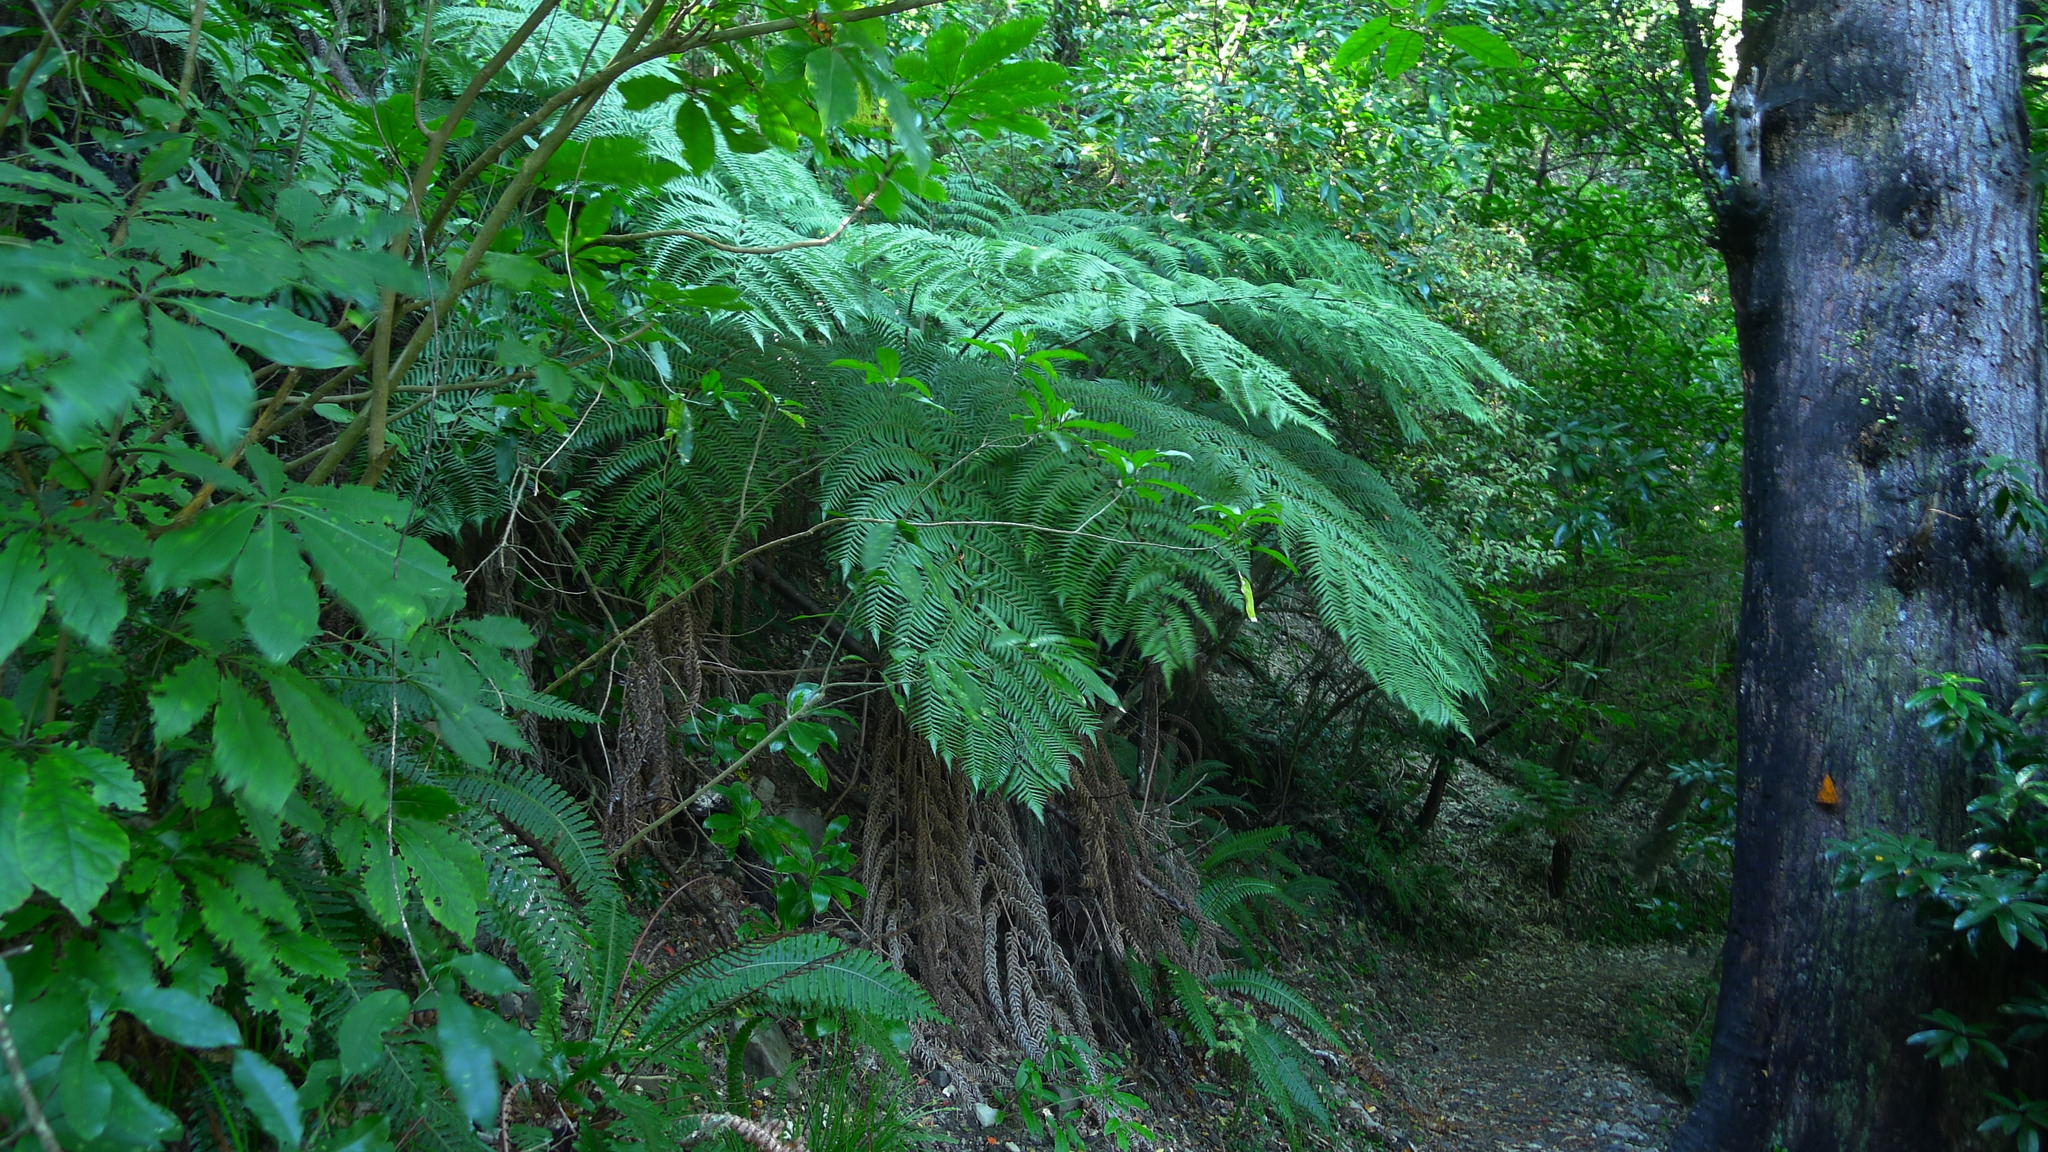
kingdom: Plantae
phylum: Tracheophyta
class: Polypodiopsida
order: Cyatheales
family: Cyatheaceae
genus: Alsophila
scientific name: Alsophila dealbata
